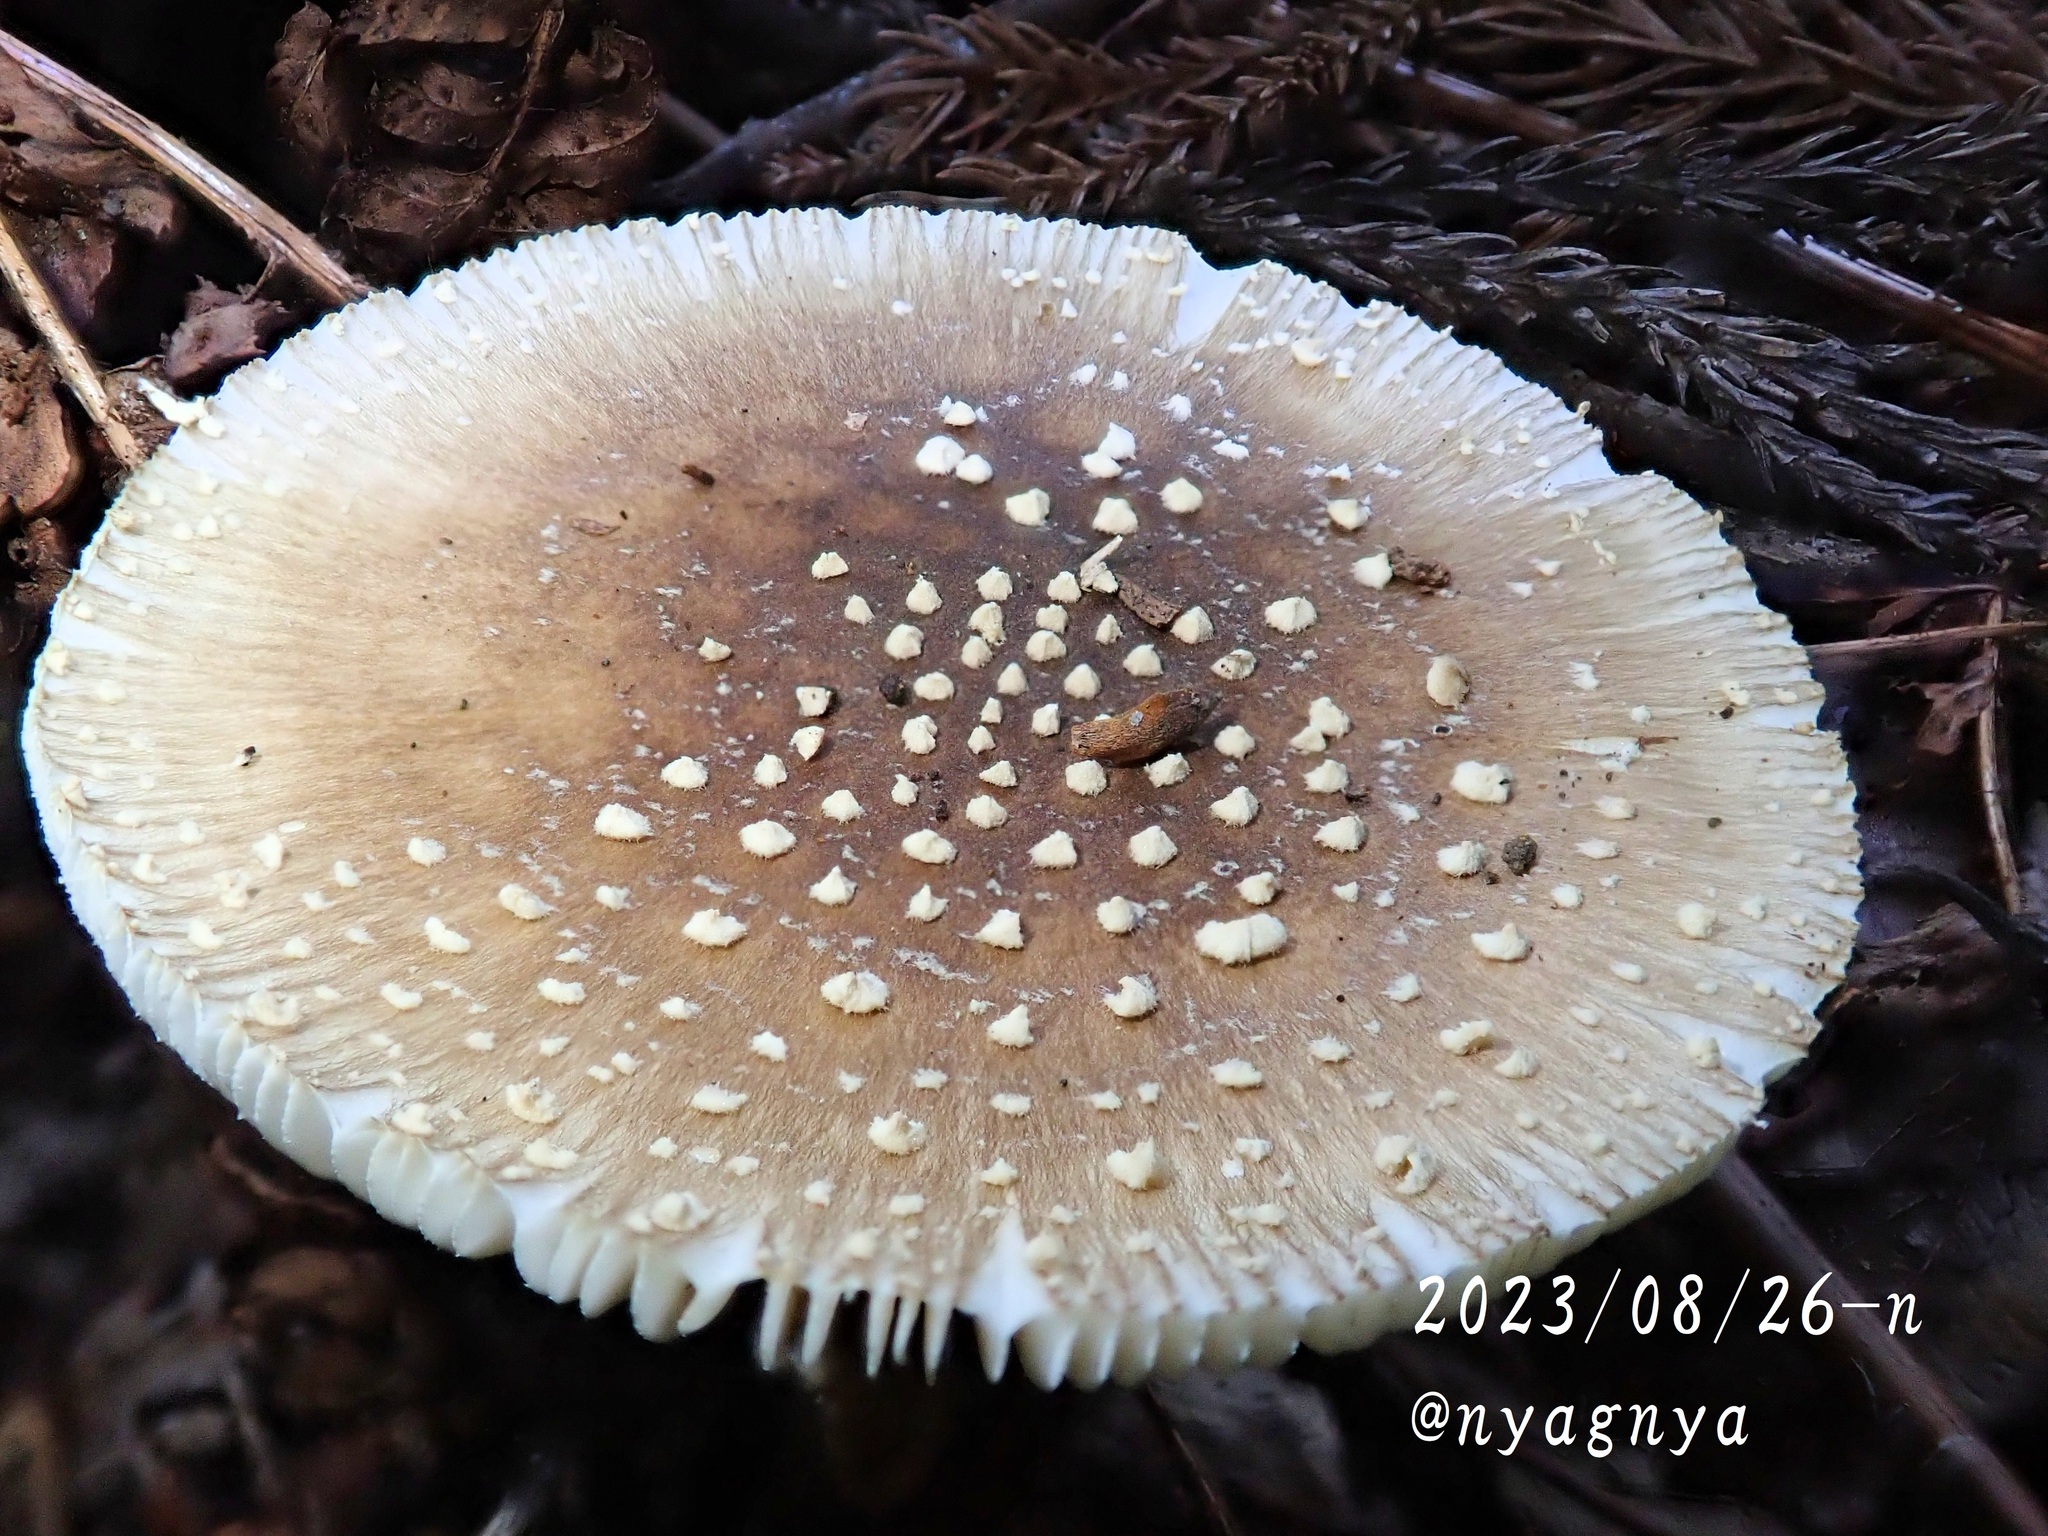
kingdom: Fungi
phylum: Basidiomycota
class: Agaricomycetes
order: Agaricales
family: Amanitaceae
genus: Amanita
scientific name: Amanita sychnopyramis
